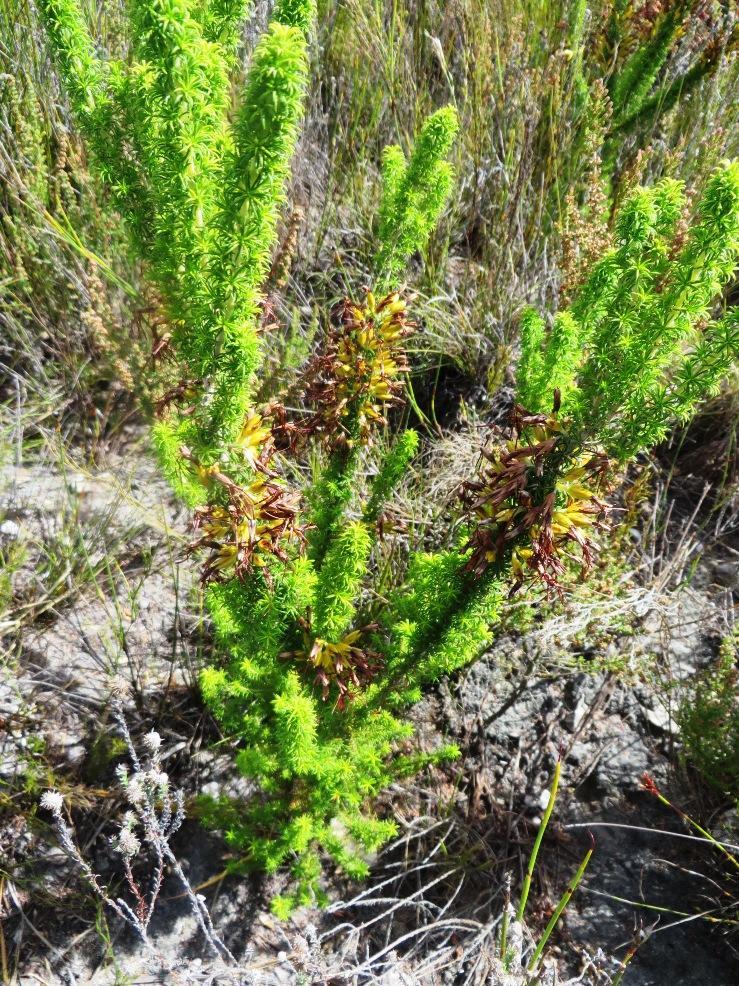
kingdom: Plantae
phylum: Tracheophyta
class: Magnoliopsida
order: Ericales
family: Ericaceae
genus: Erica
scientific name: Erica coccinea
